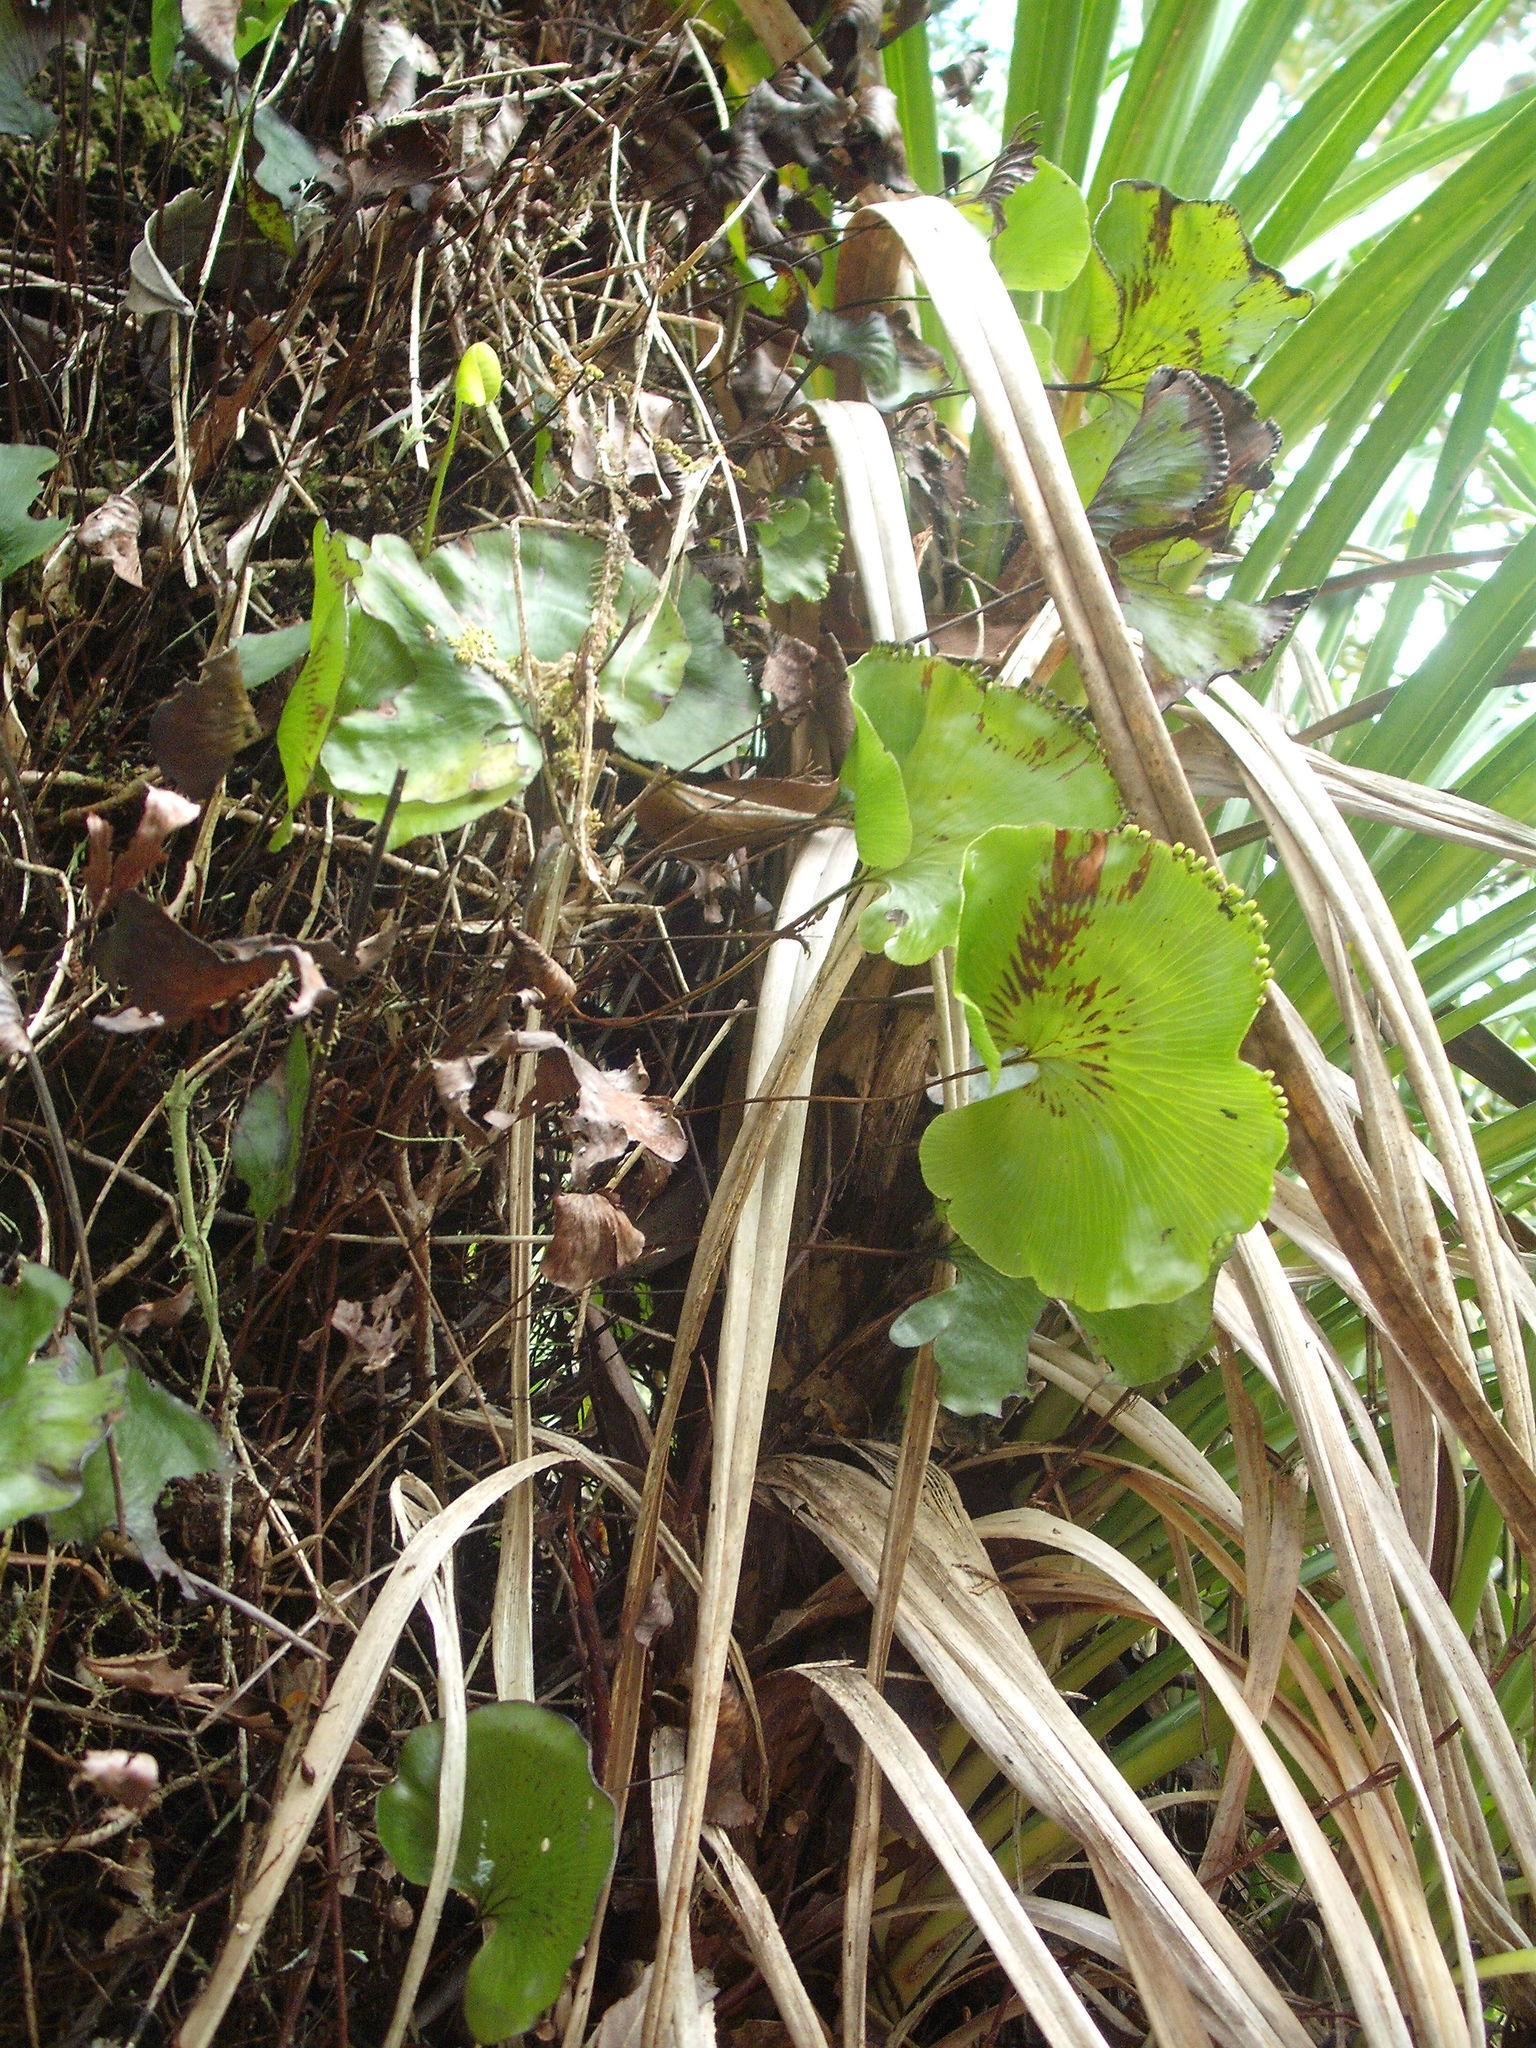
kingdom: Plantae
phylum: Tracheophyta
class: Polypodiopsida
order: Hymenophyllales
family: Hymenophyllaceae
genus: Hymenophyllum
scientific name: Hymenophyllum nephrophyllum
